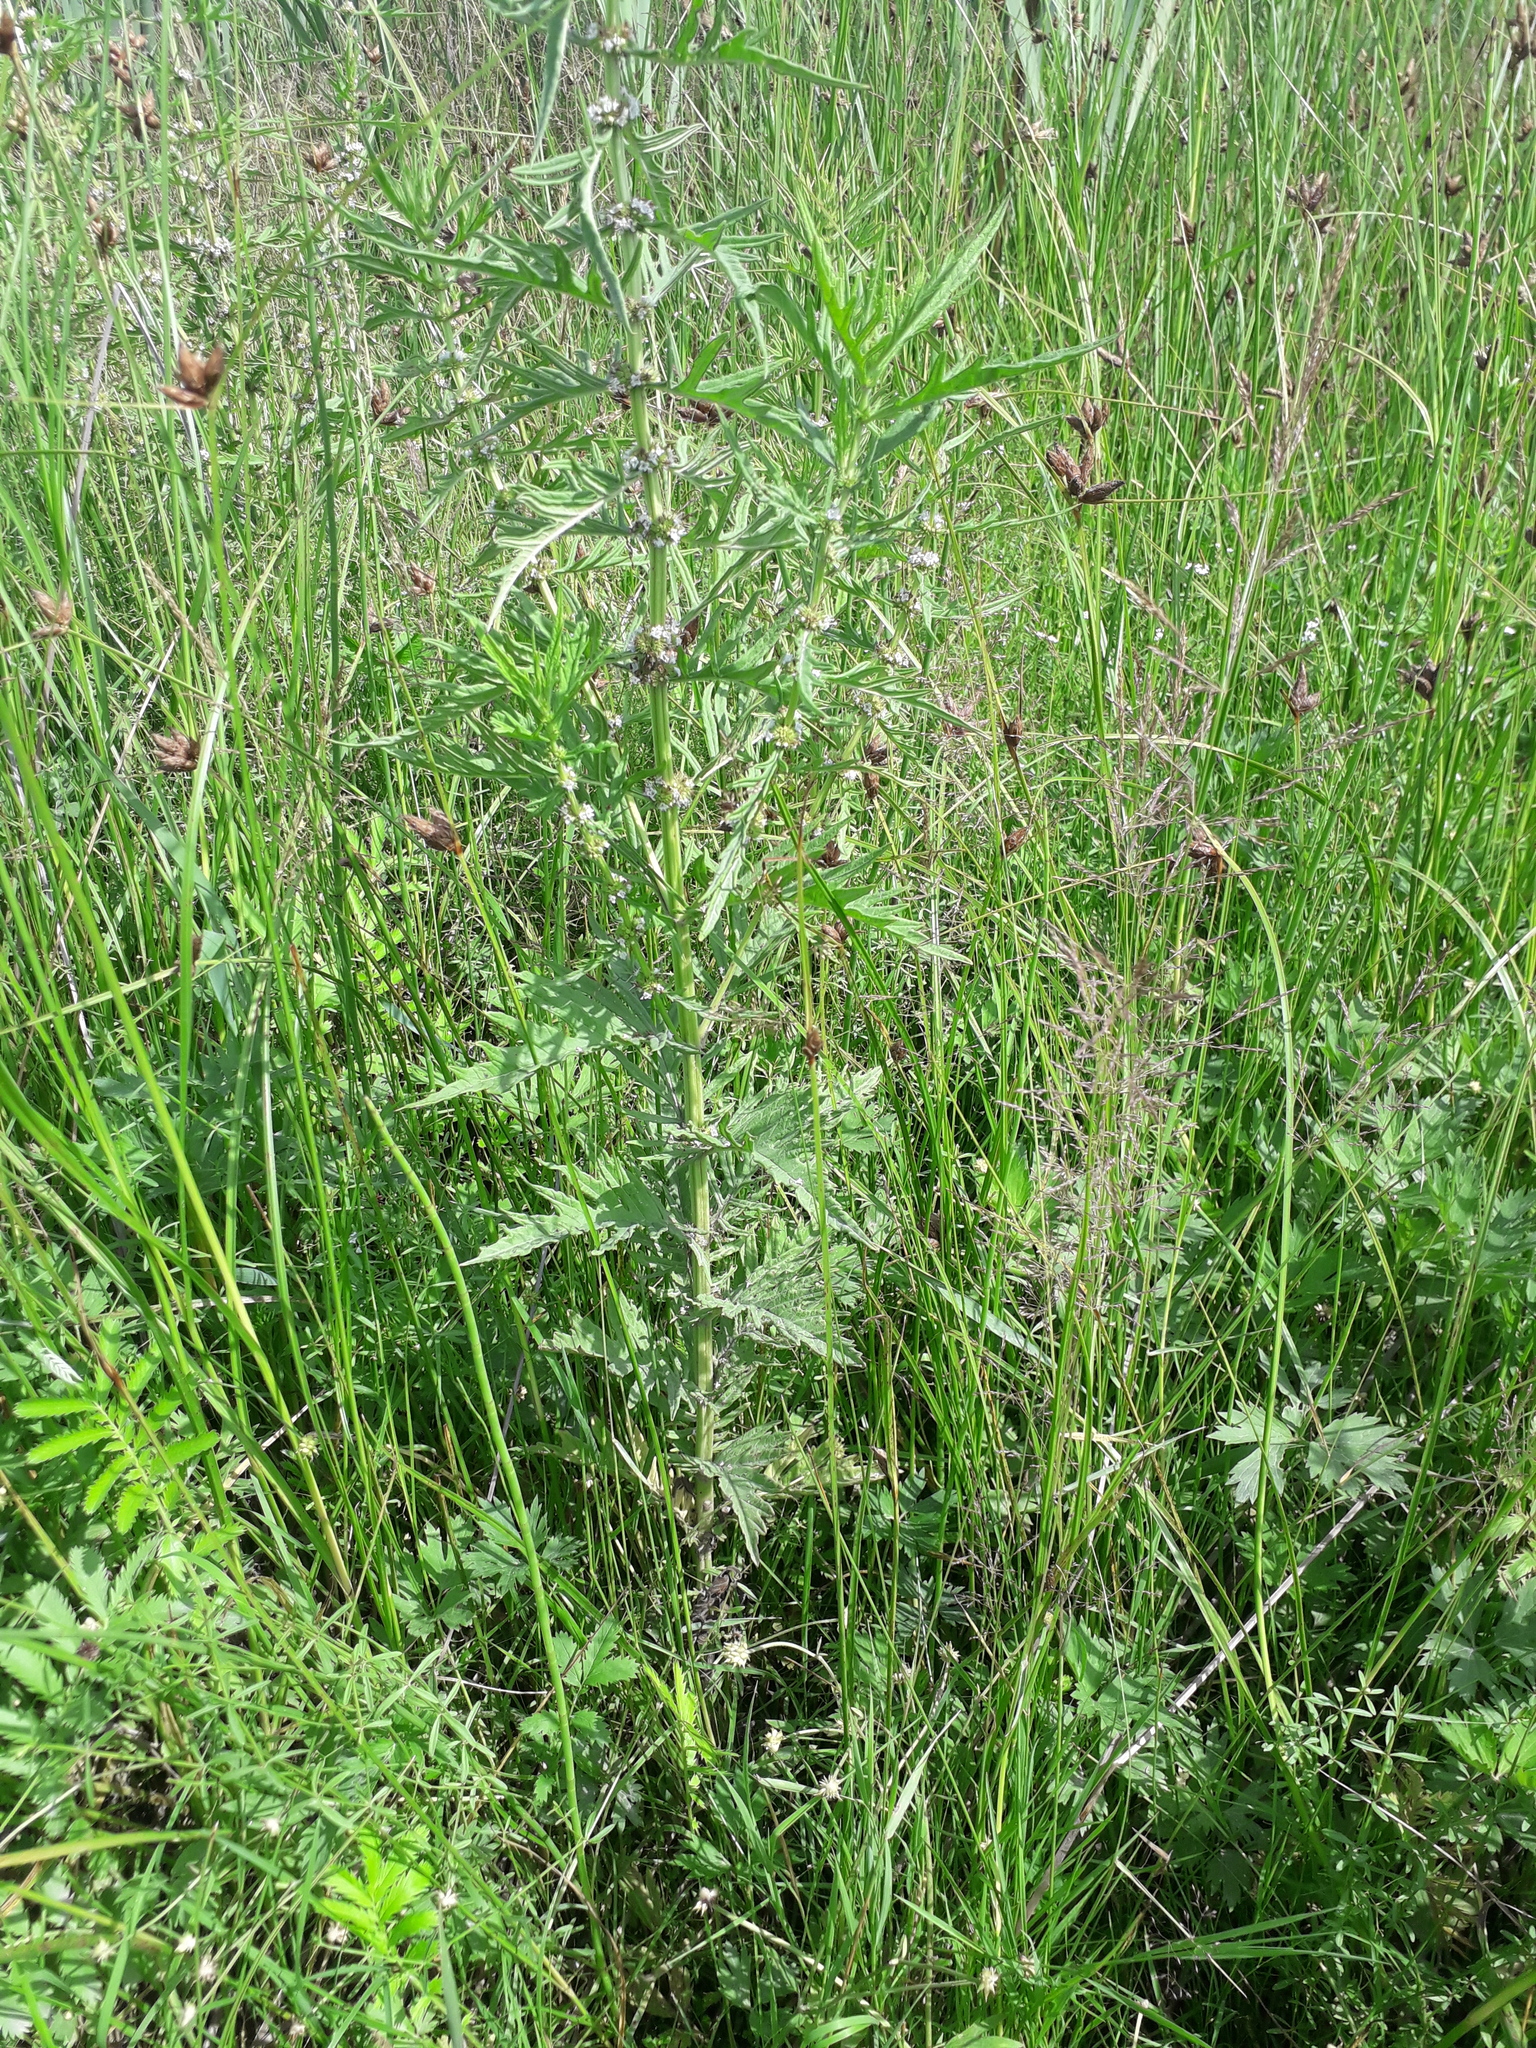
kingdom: Plantae
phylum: Tracheophyta
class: Magnoliopsida
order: Lamiales
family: Lamiaceae
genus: Lycopus
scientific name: Lycopus exaltatus
